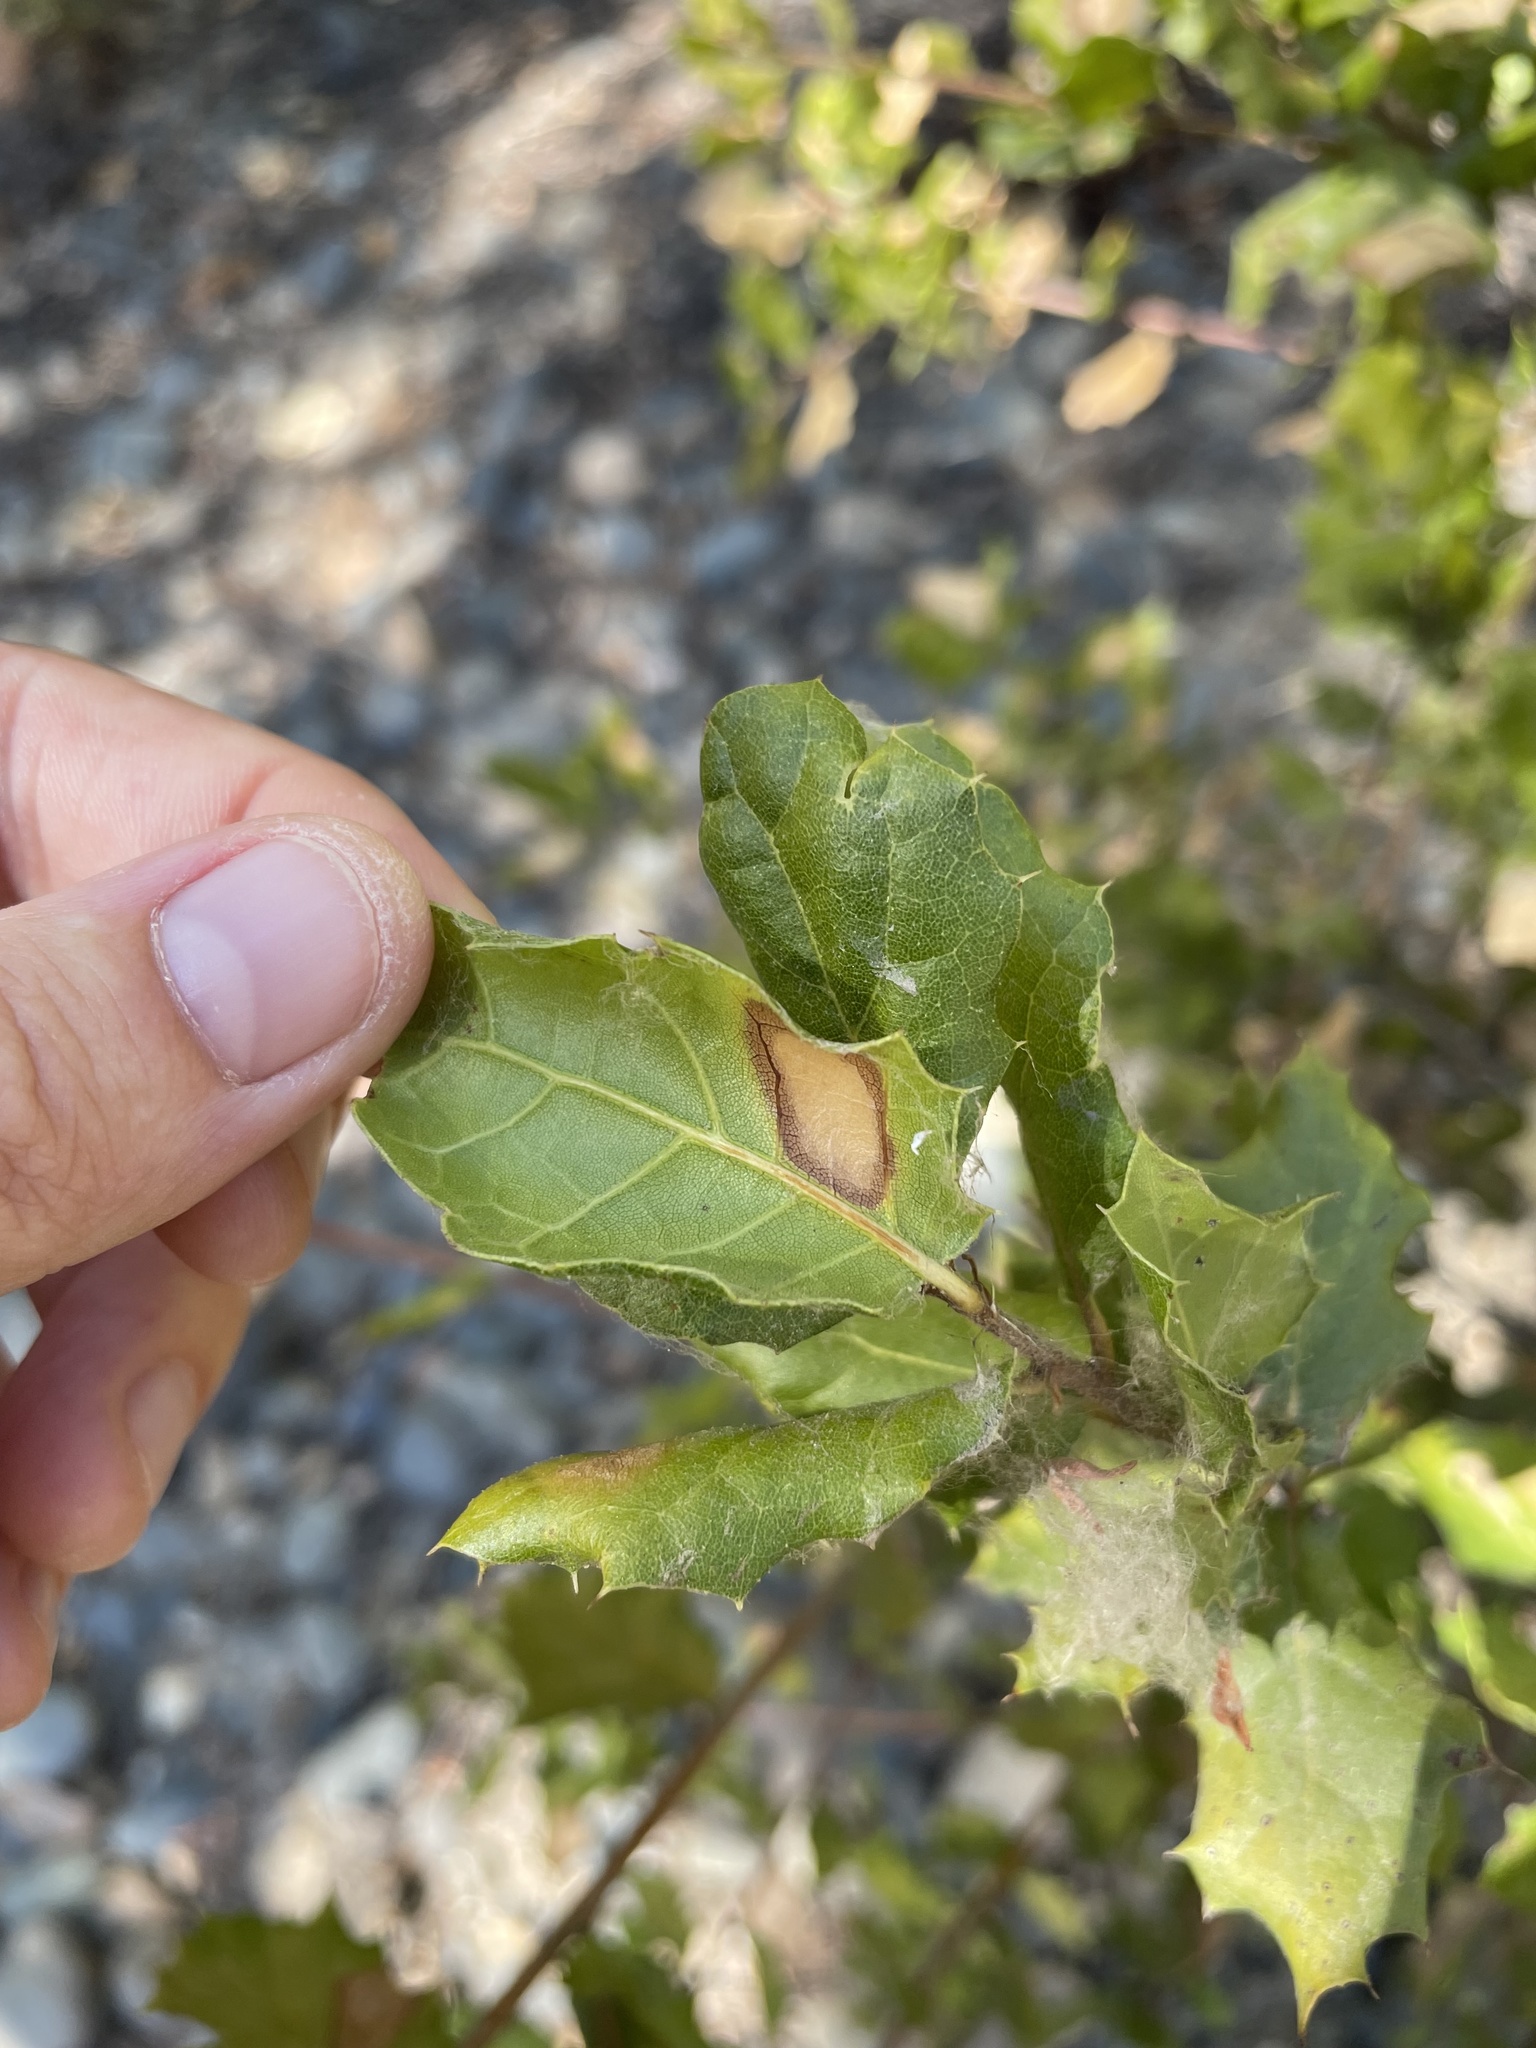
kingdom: Plantae
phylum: Tracheophyta
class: Magnoliopsida
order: Fagales
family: Fagaceae
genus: Quercus
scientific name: Quercus agrifolia
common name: California live oak
